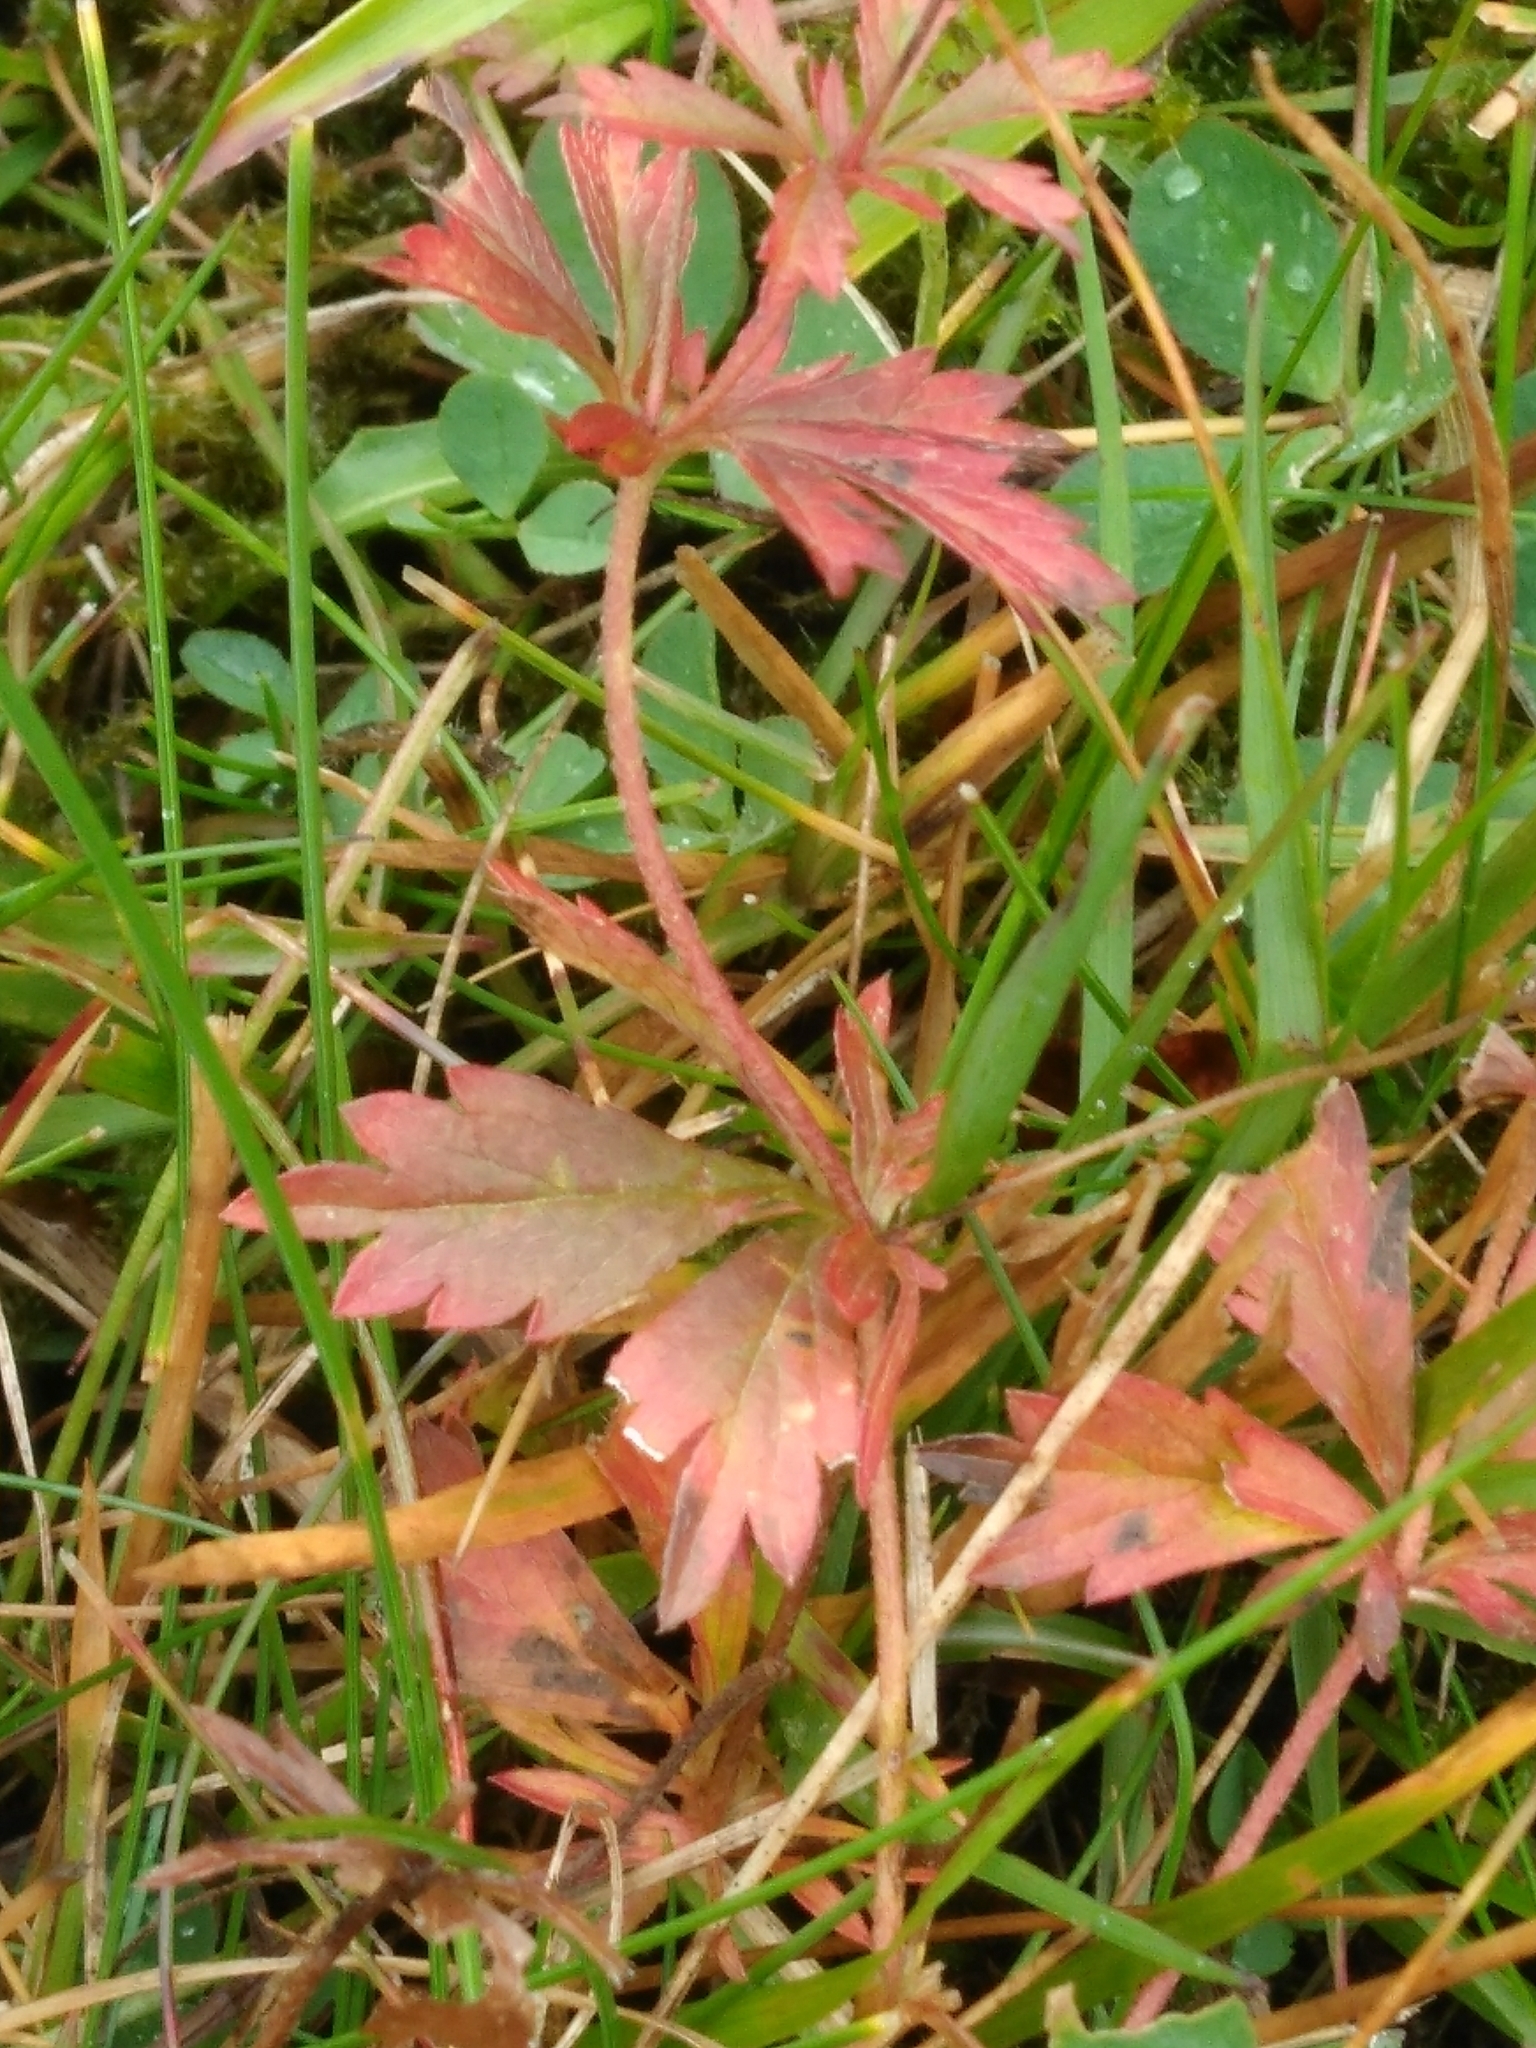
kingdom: Plantae
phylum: Tracheophyta
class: Magnoliopsida
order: Rosales
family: Rosaceae
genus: Potentilla
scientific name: Potentilla erecta
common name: Tormentil
